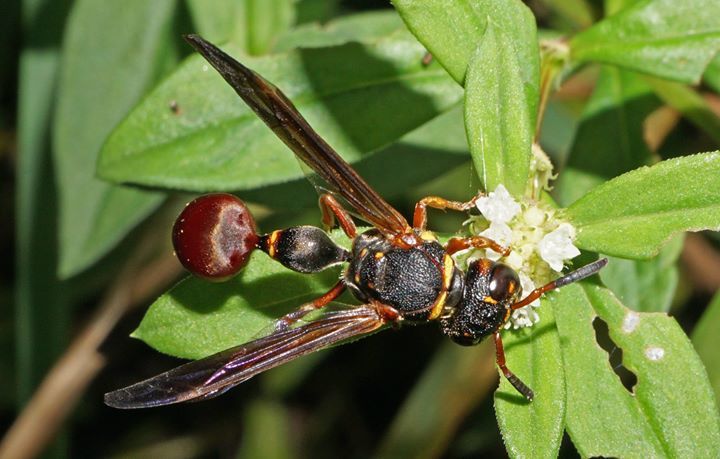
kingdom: Animalia
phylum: Arthropoda
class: Insecta
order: Hymenoptera
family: Eumenidae
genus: Zethus
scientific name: Zethus slossonae
